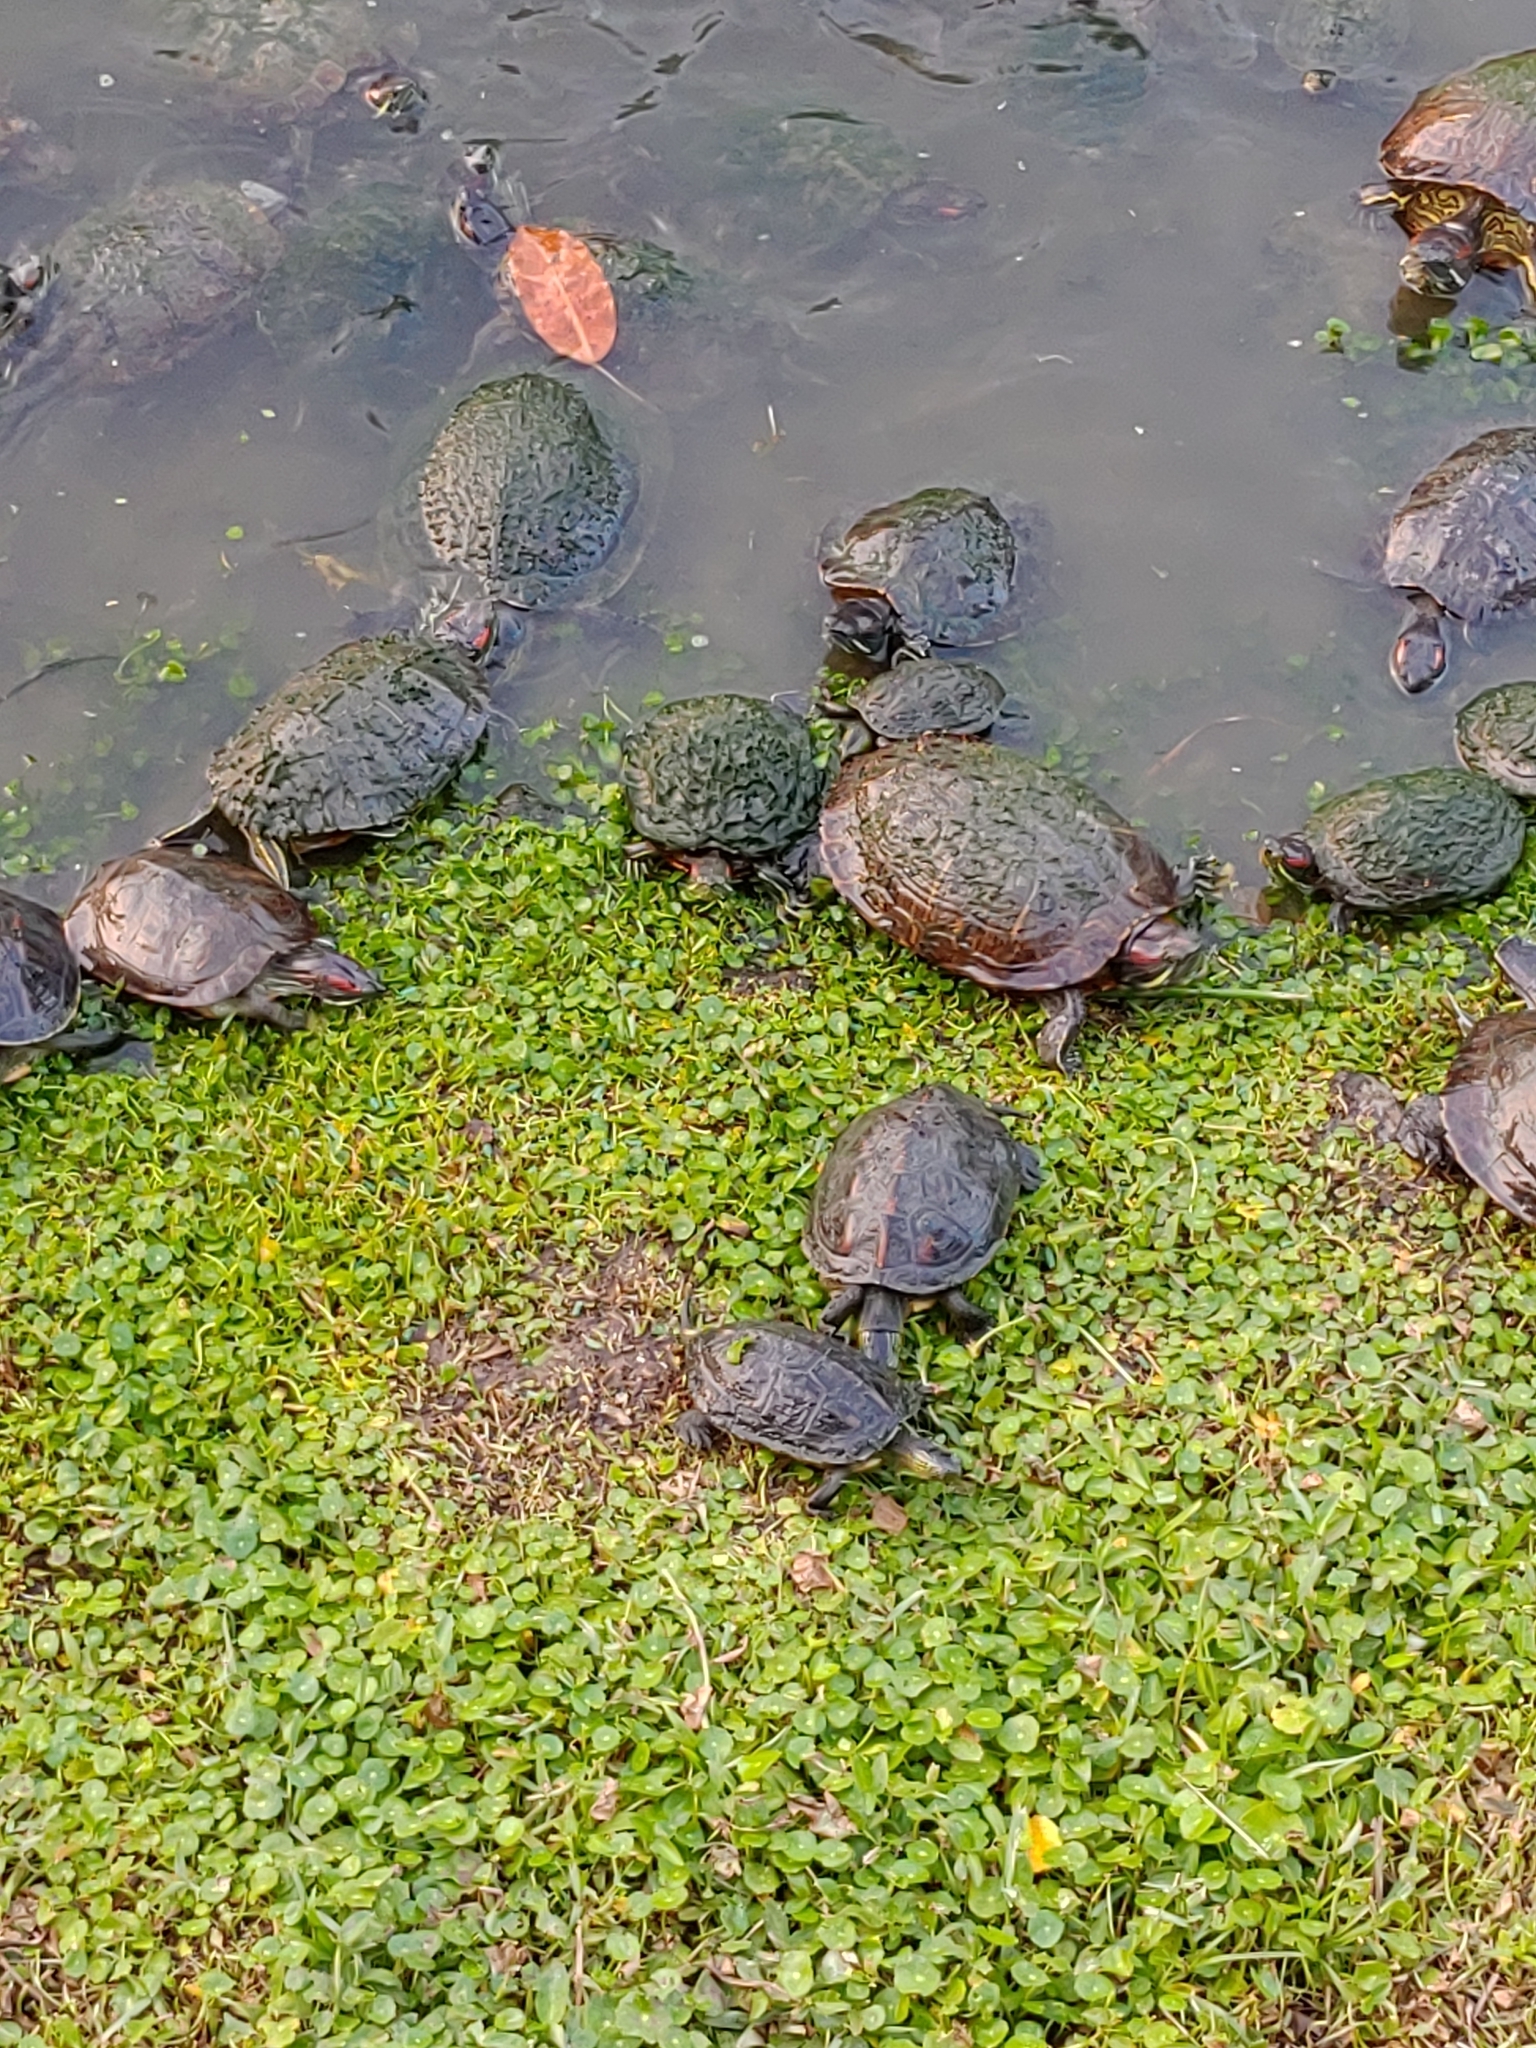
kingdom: Animalia
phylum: Chordata
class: Testudines
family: Emydidae
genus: Trachemys
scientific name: Trachemys scripta
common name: Slider
